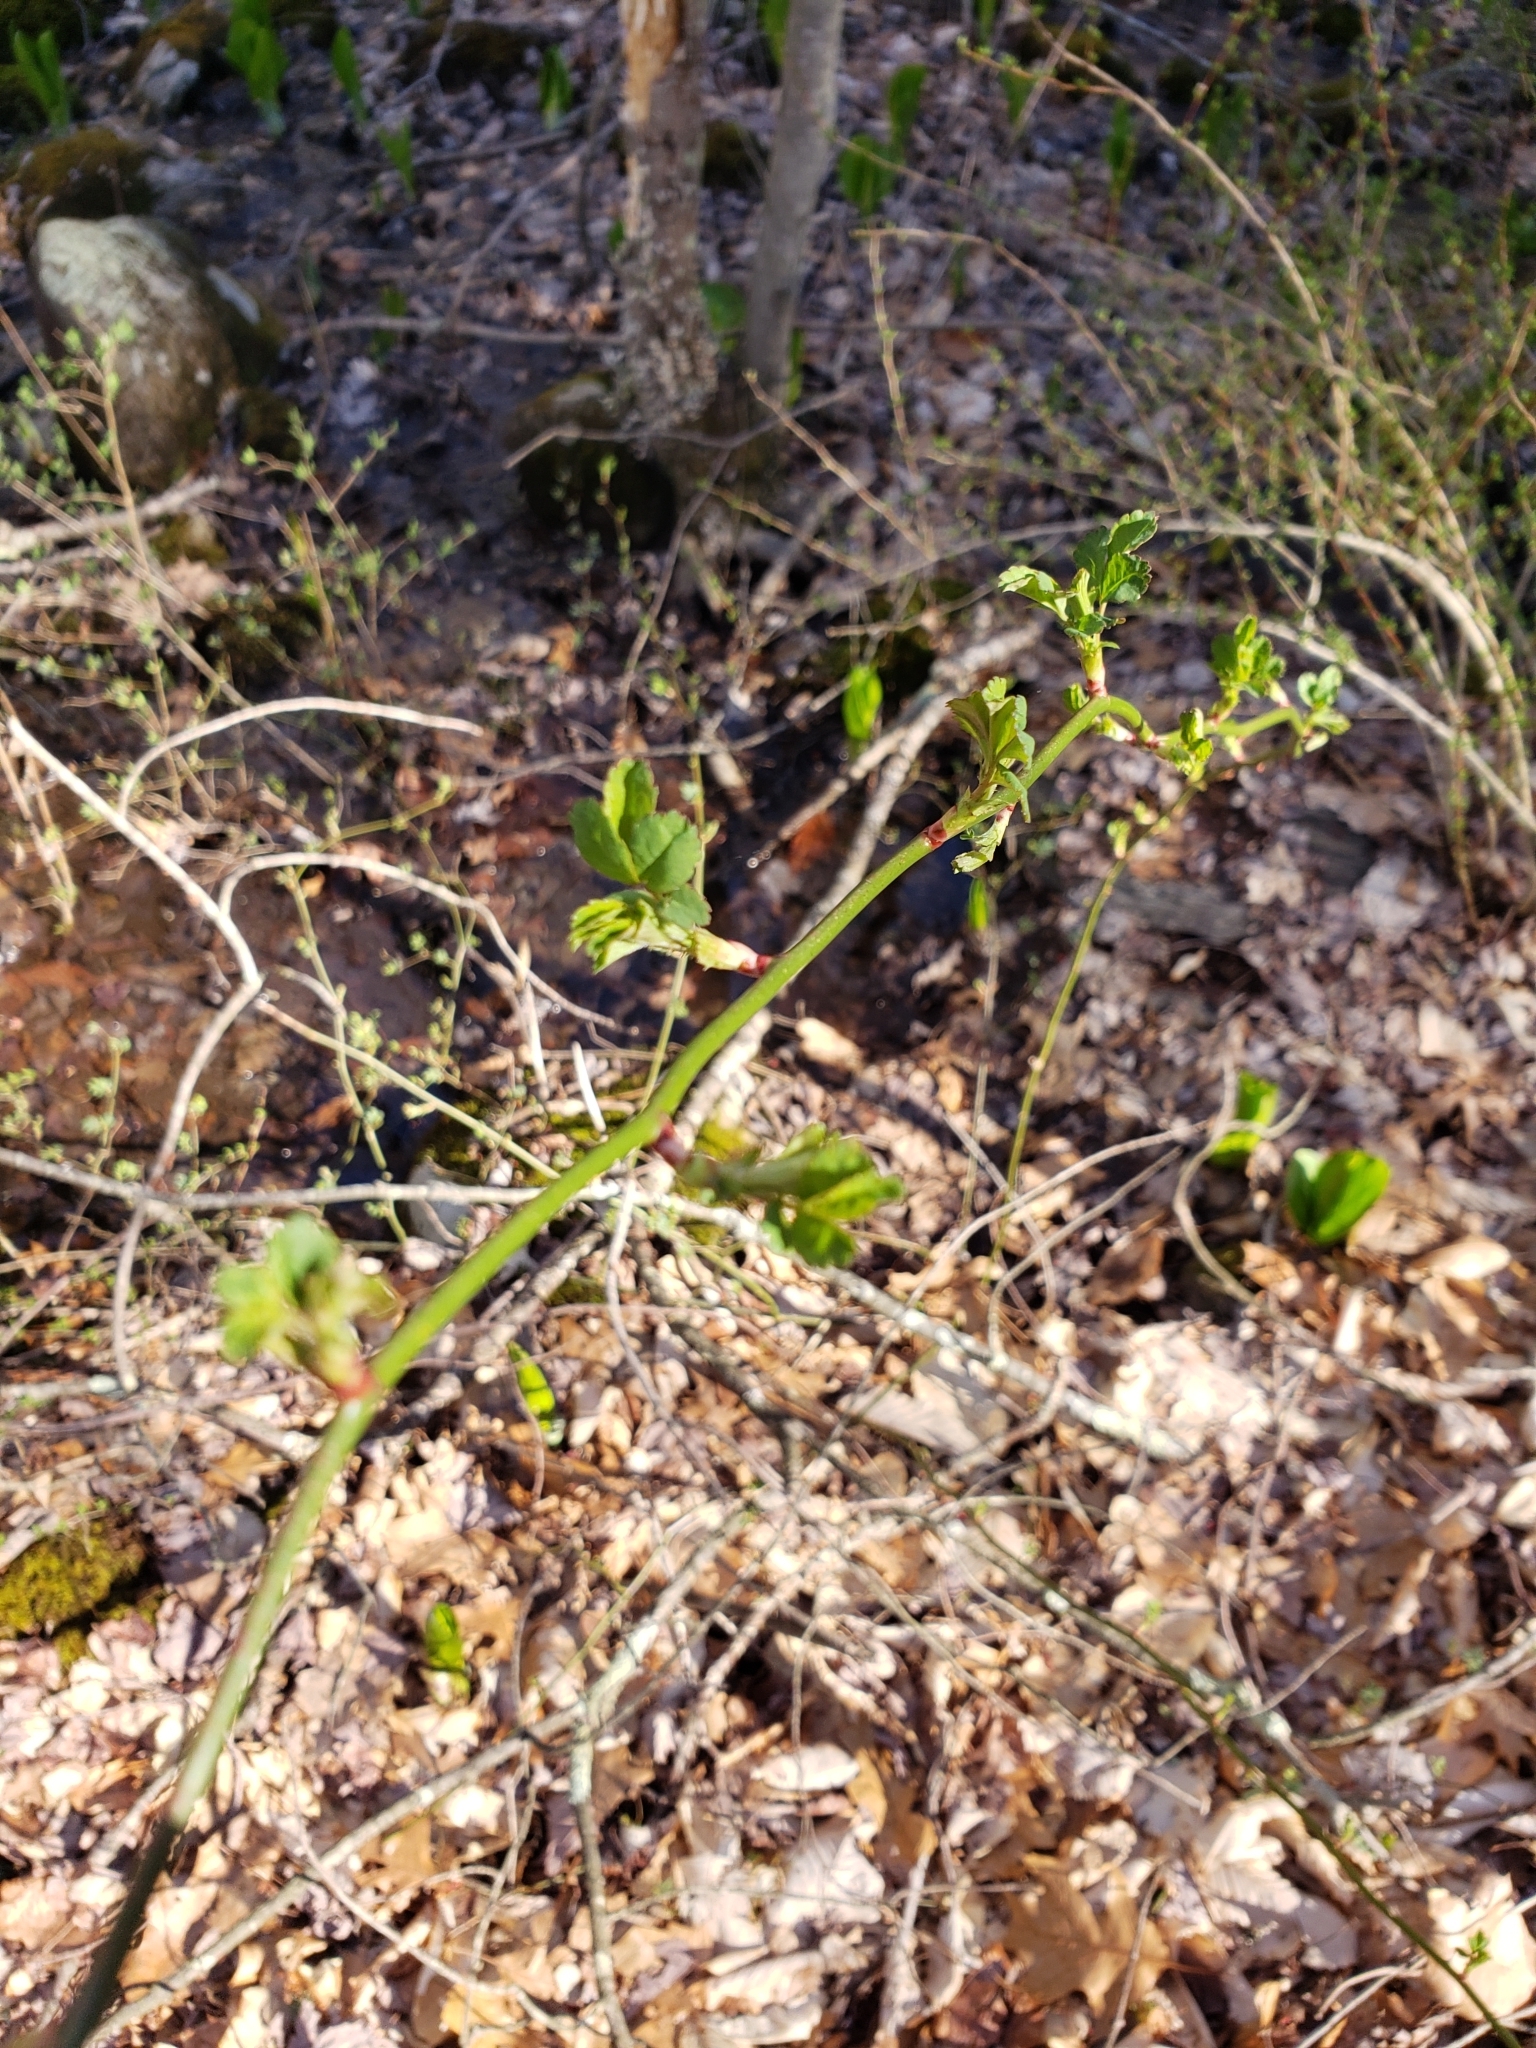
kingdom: Plantae
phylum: Tracheophyta
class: Magnoliopsida
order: Rosales
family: Rosaceae
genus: Rosa
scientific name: Rosa multiflora
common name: Multiflora rose
